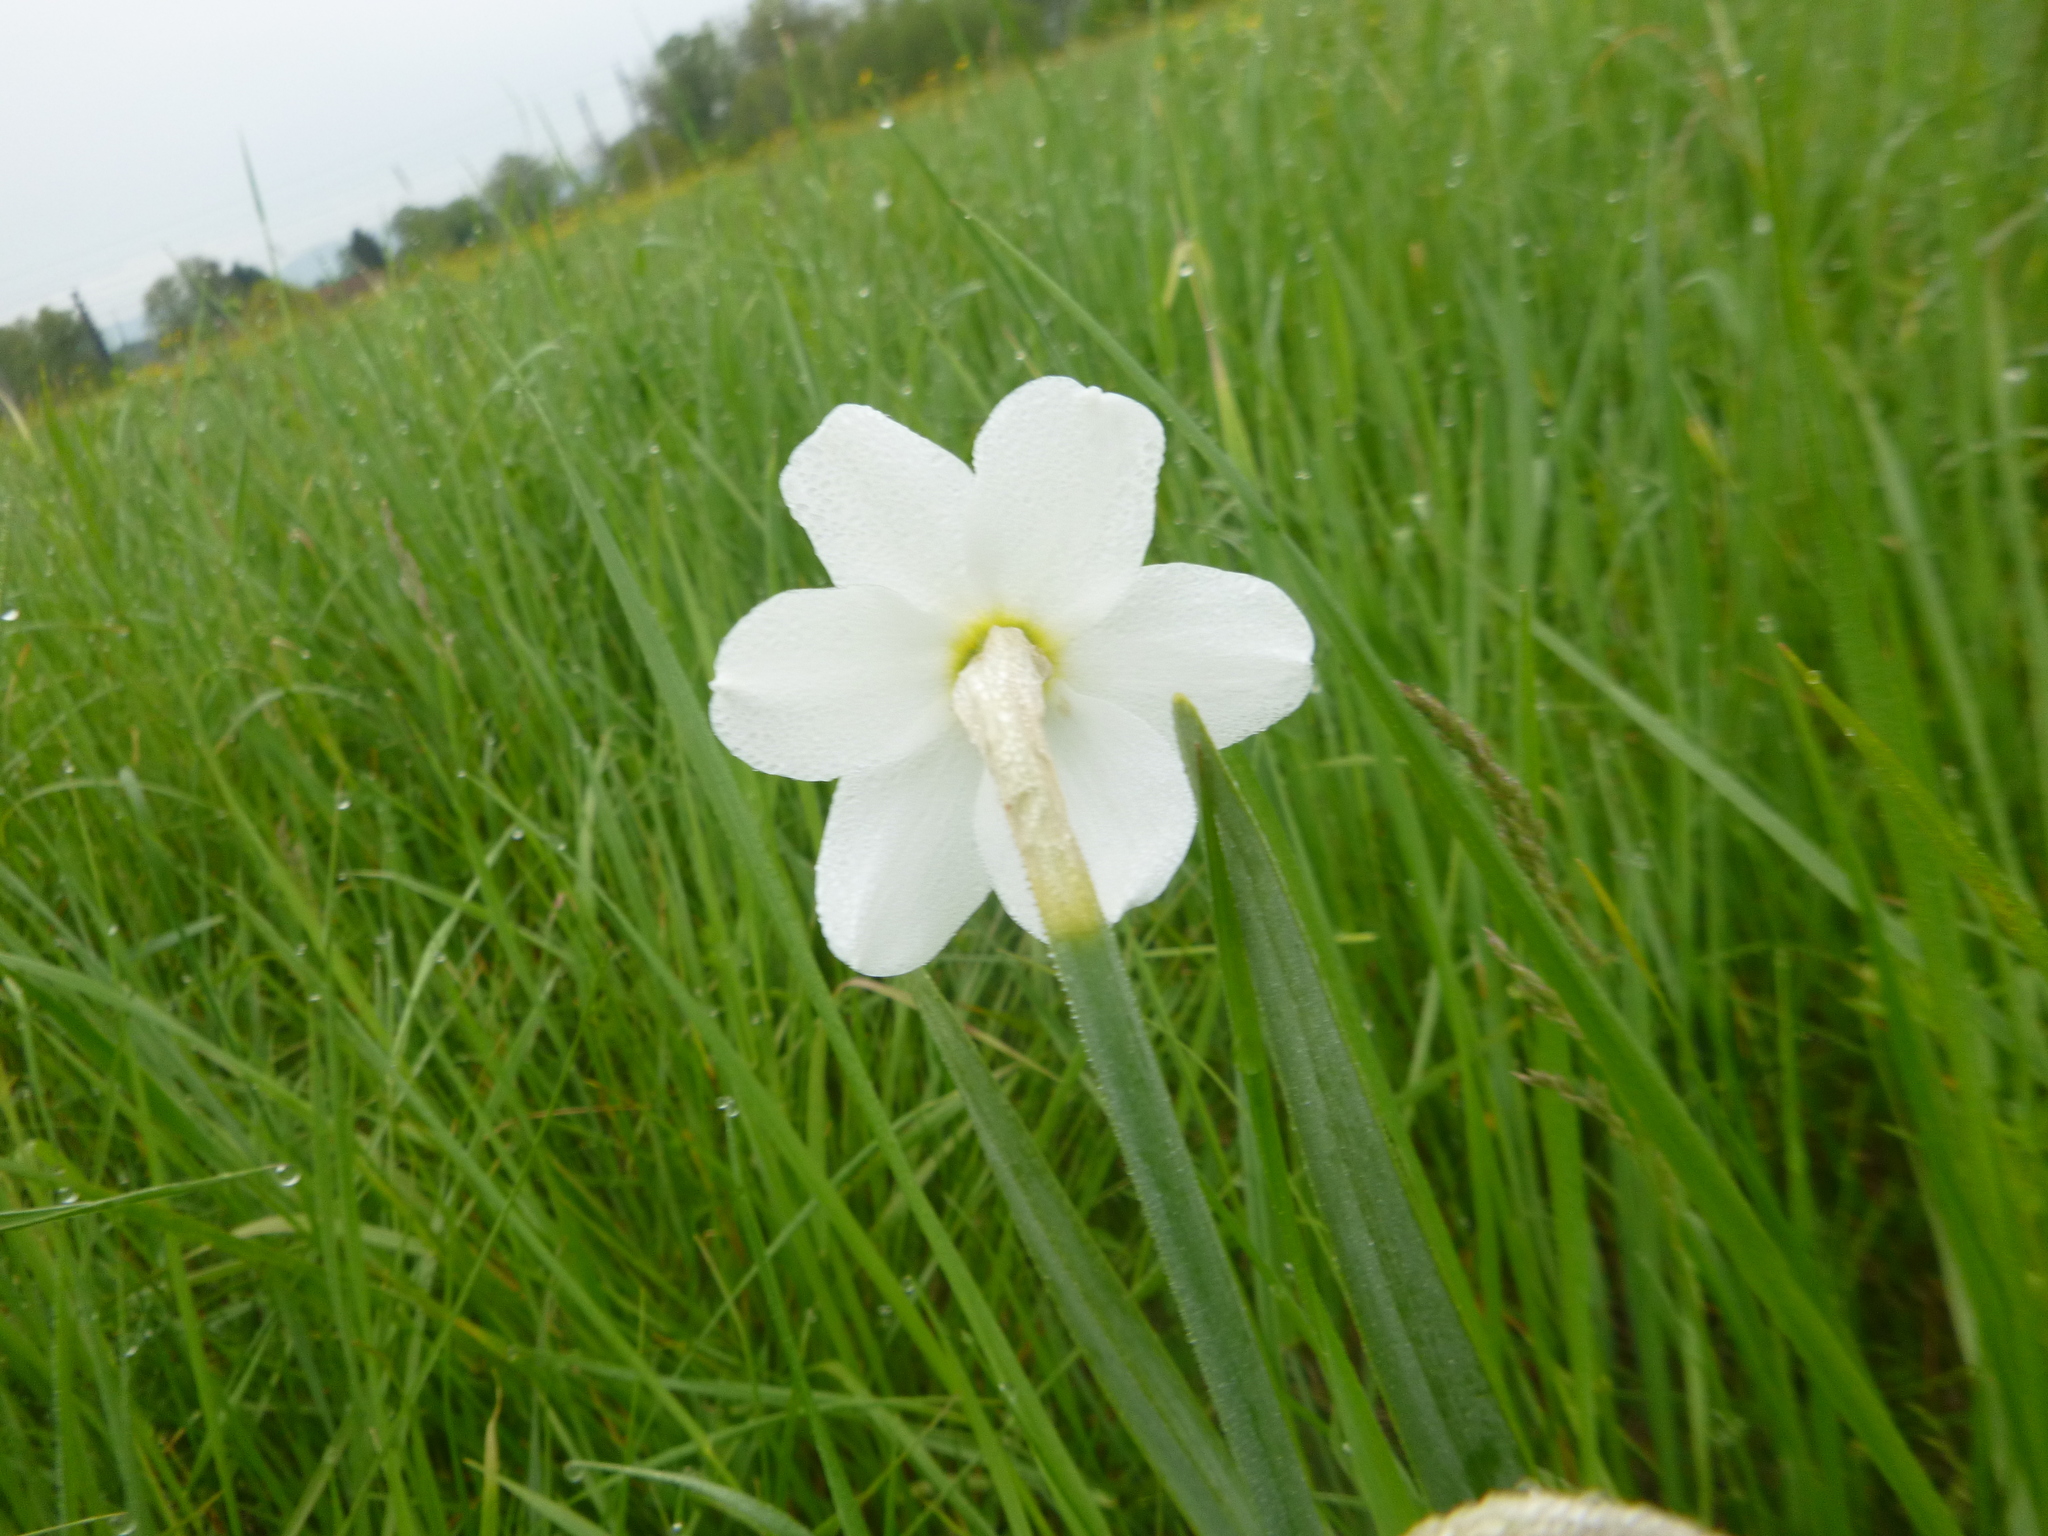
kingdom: Plantae
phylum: Tracheophyta
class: Liliopsida
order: Asparagales
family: Amaryllidaceae
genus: Narcissus
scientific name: Narcissus poeticus
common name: Pheasant's-eye daffodil
